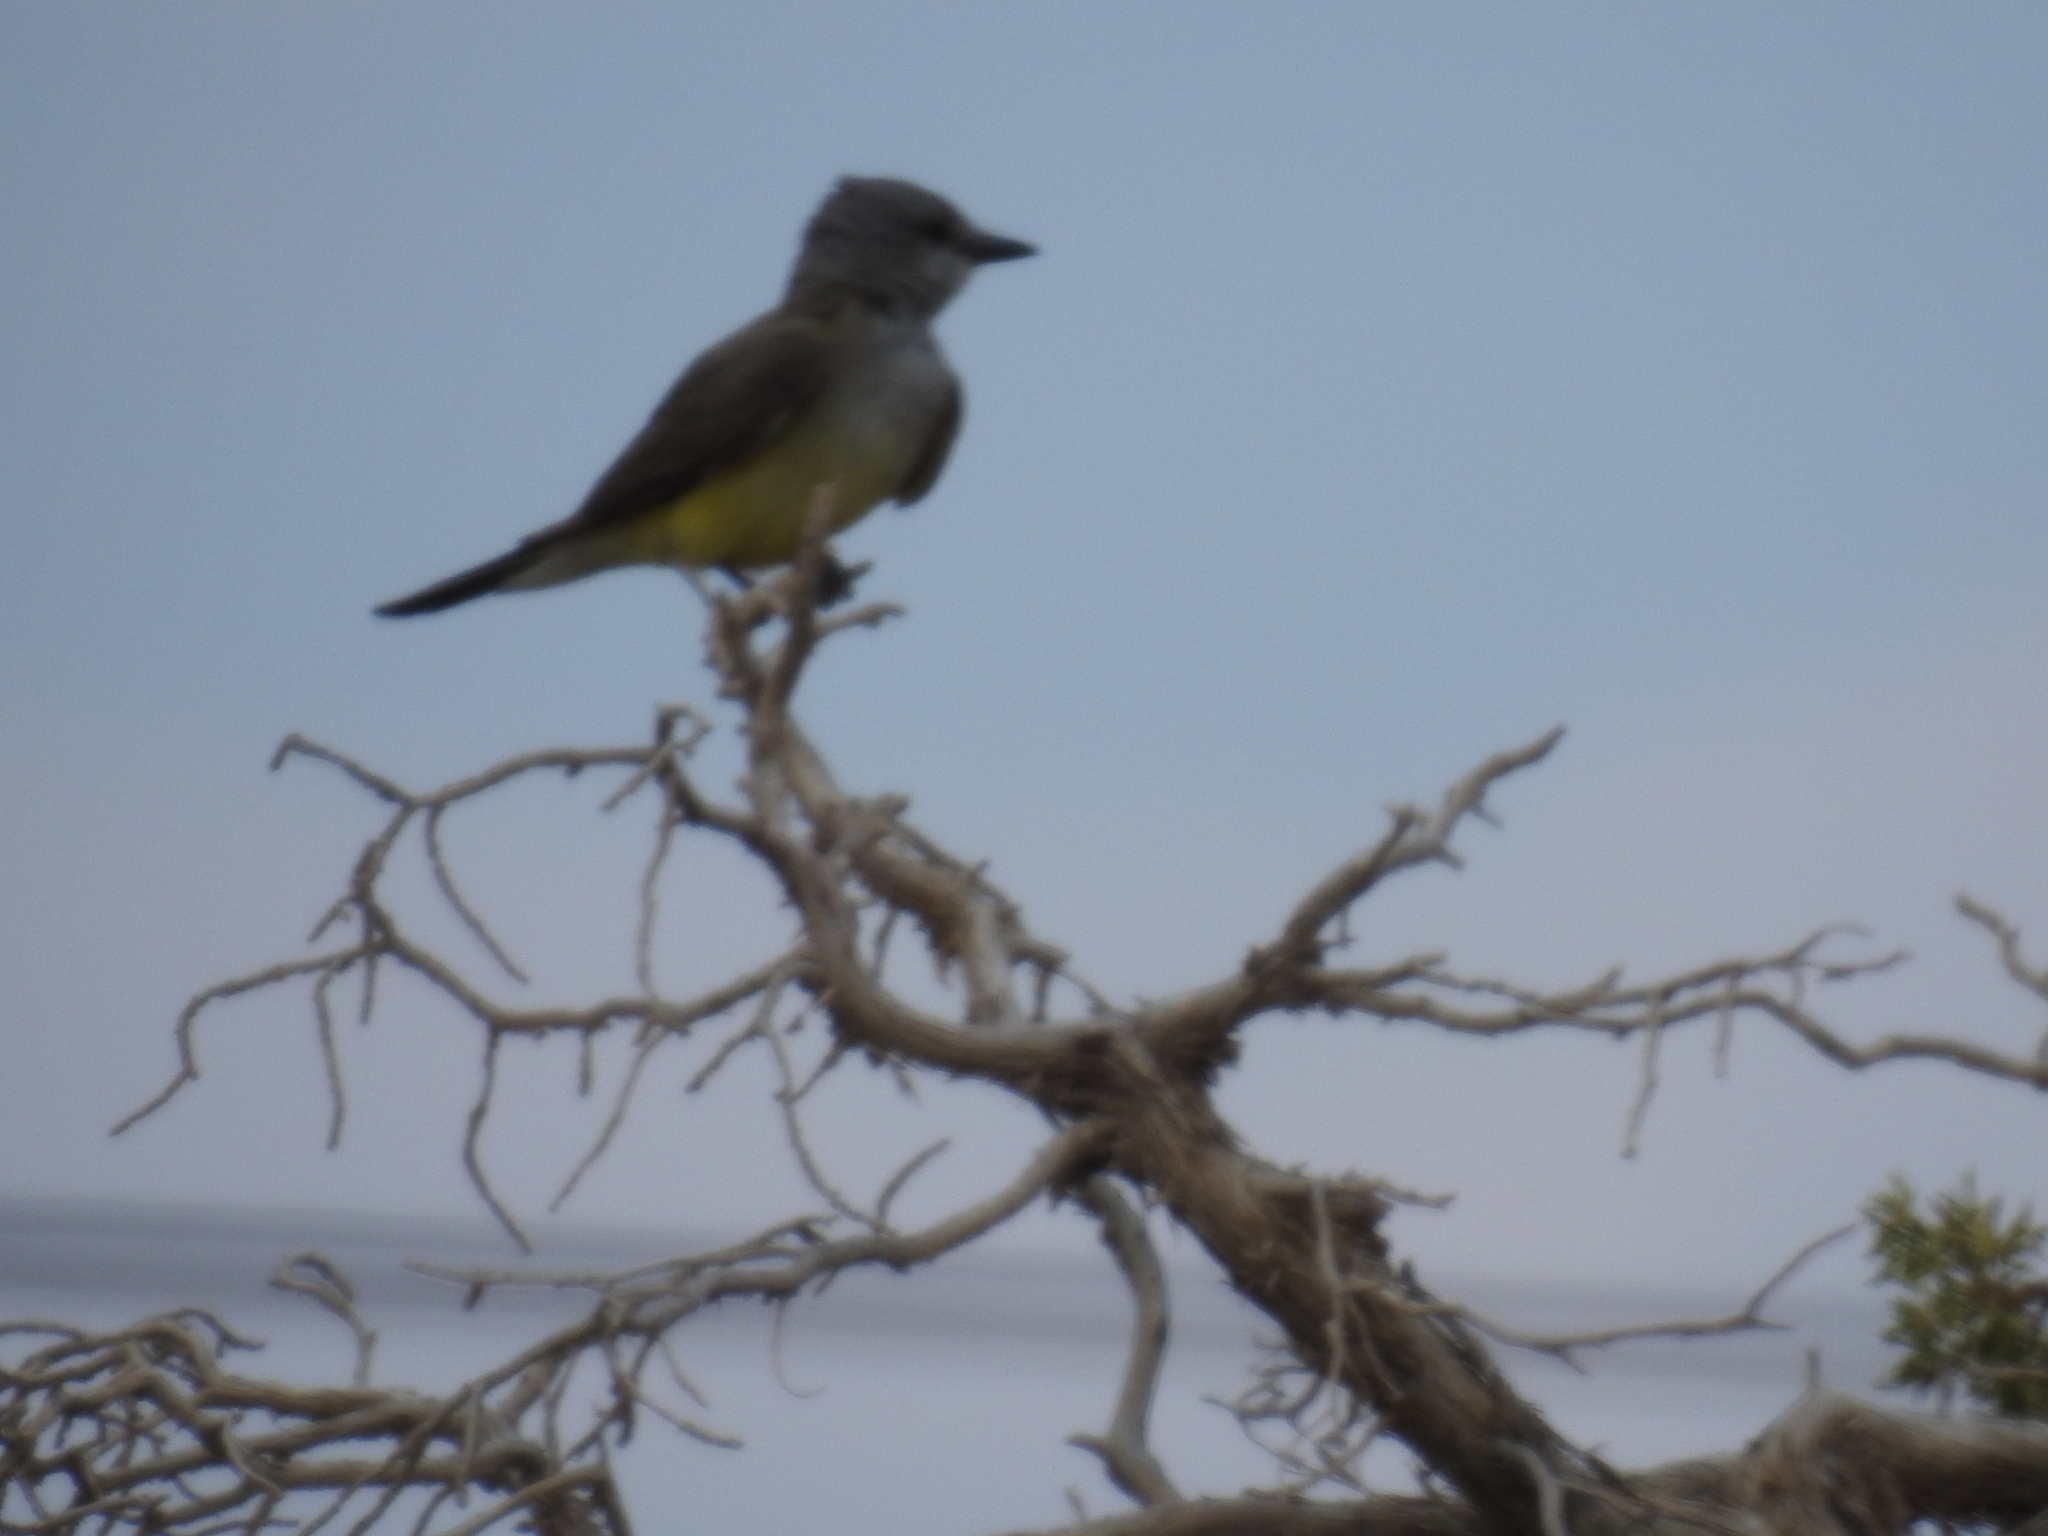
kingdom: Animalia
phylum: Chordata
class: Aves
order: Passeriformes
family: Tyrannidae
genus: Tyrannus
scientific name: Tyrannus verticalis
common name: Western kingbird
